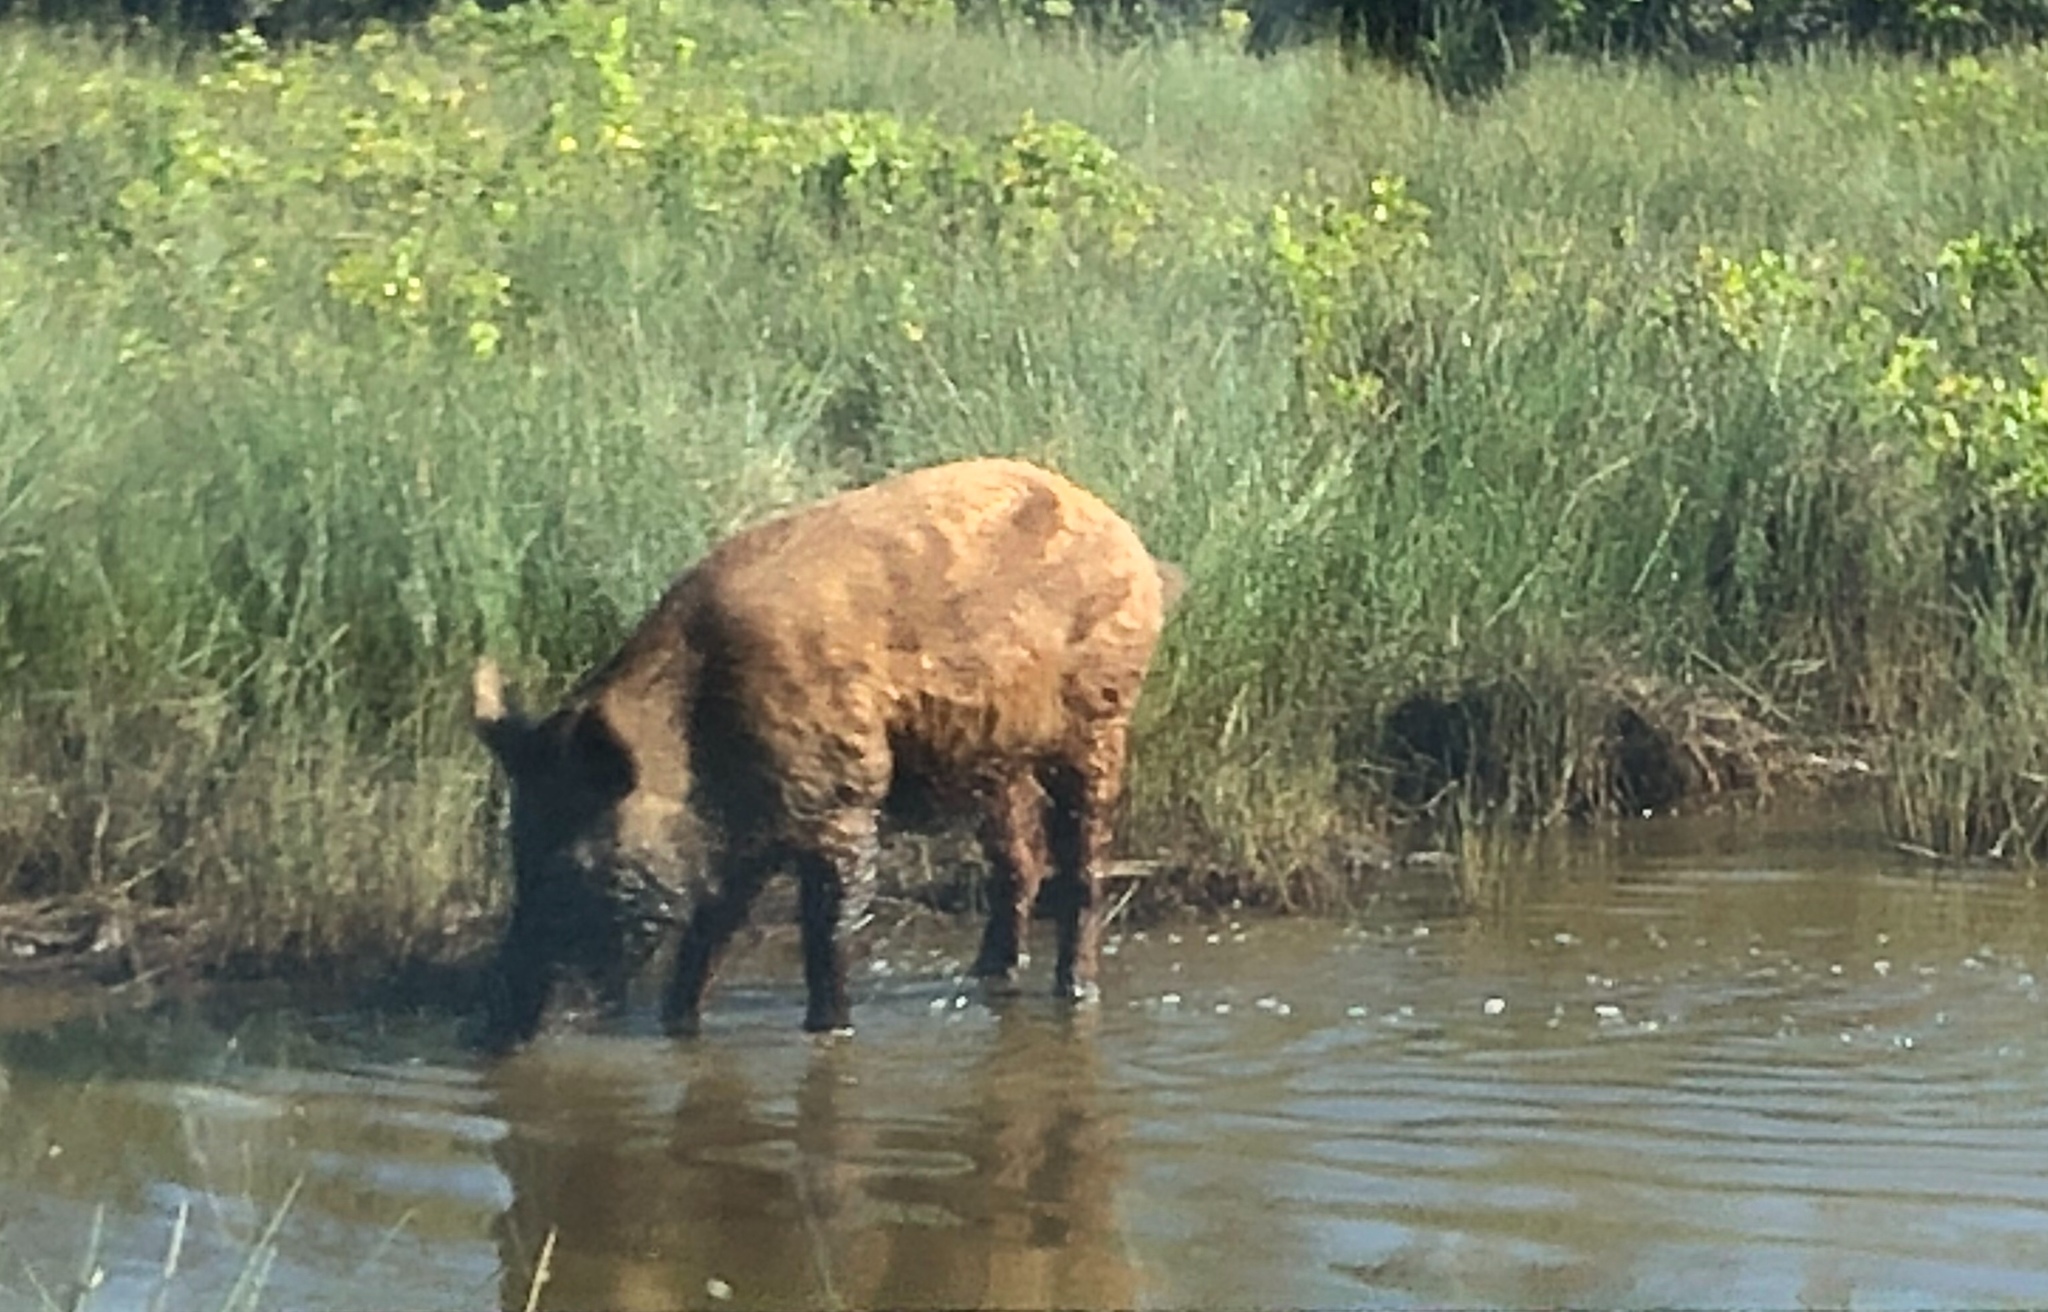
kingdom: Animalia
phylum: Chordata
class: Mammalia
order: Artiodactyla
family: Suidae
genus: Sus
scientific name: Sus scrofa
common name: Wild boar
